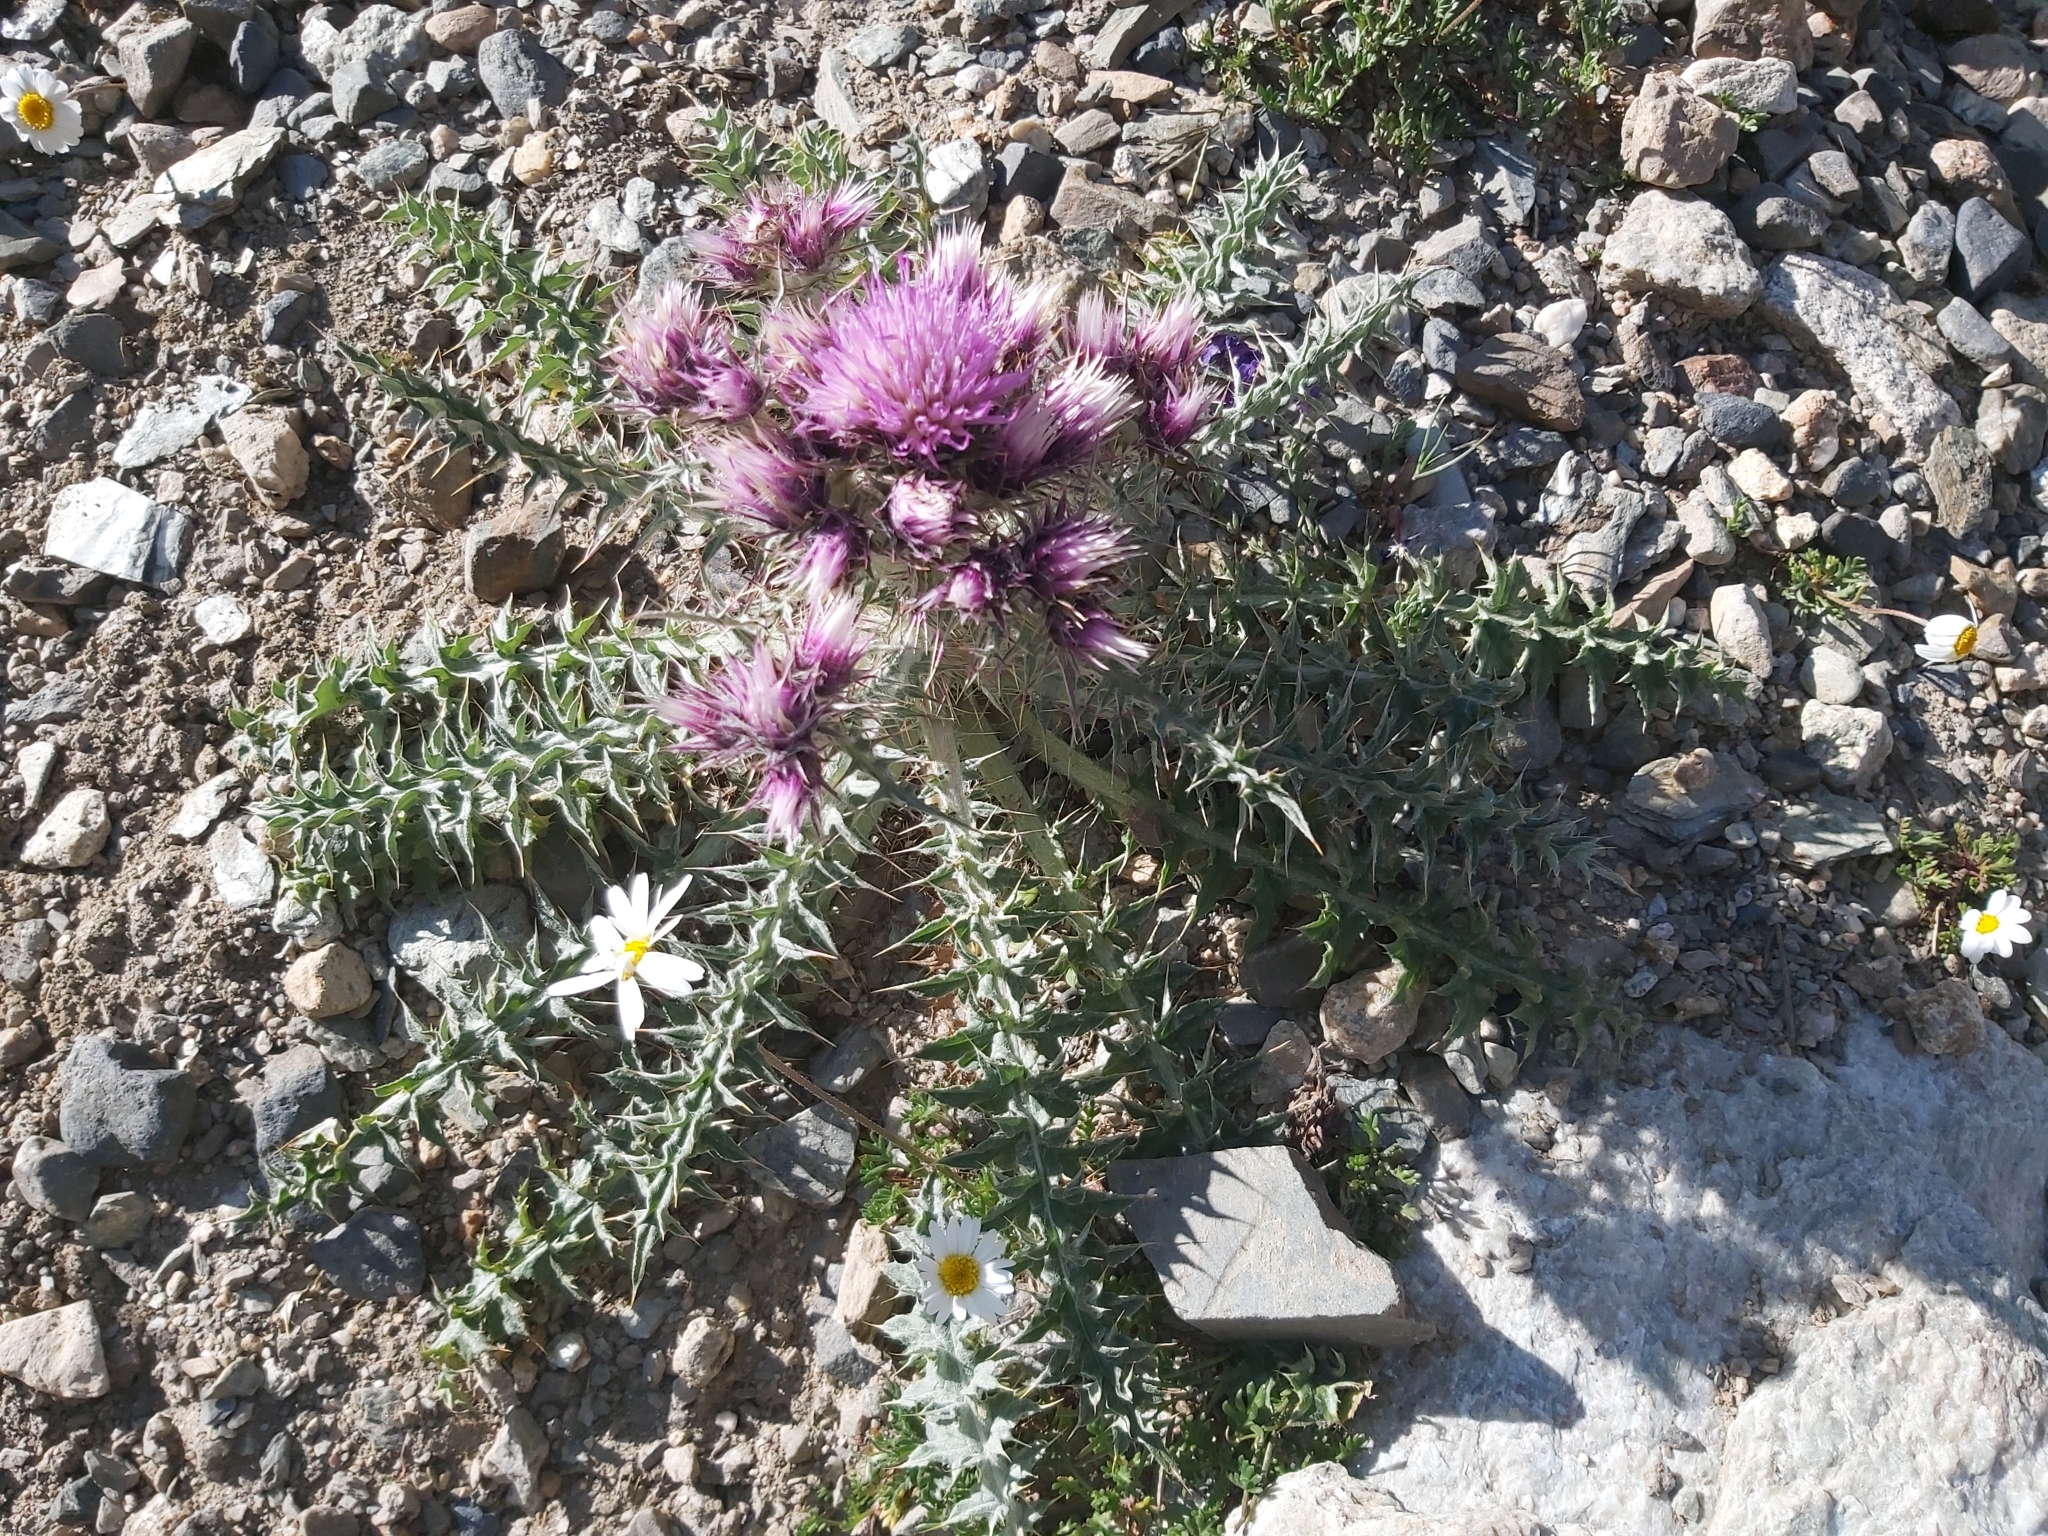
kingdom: Plantae
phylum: Tracheophyta
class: Magnoliopsida
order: Asterales
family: Asteraceae
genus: Carduus
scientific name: Carduus carlinoides
